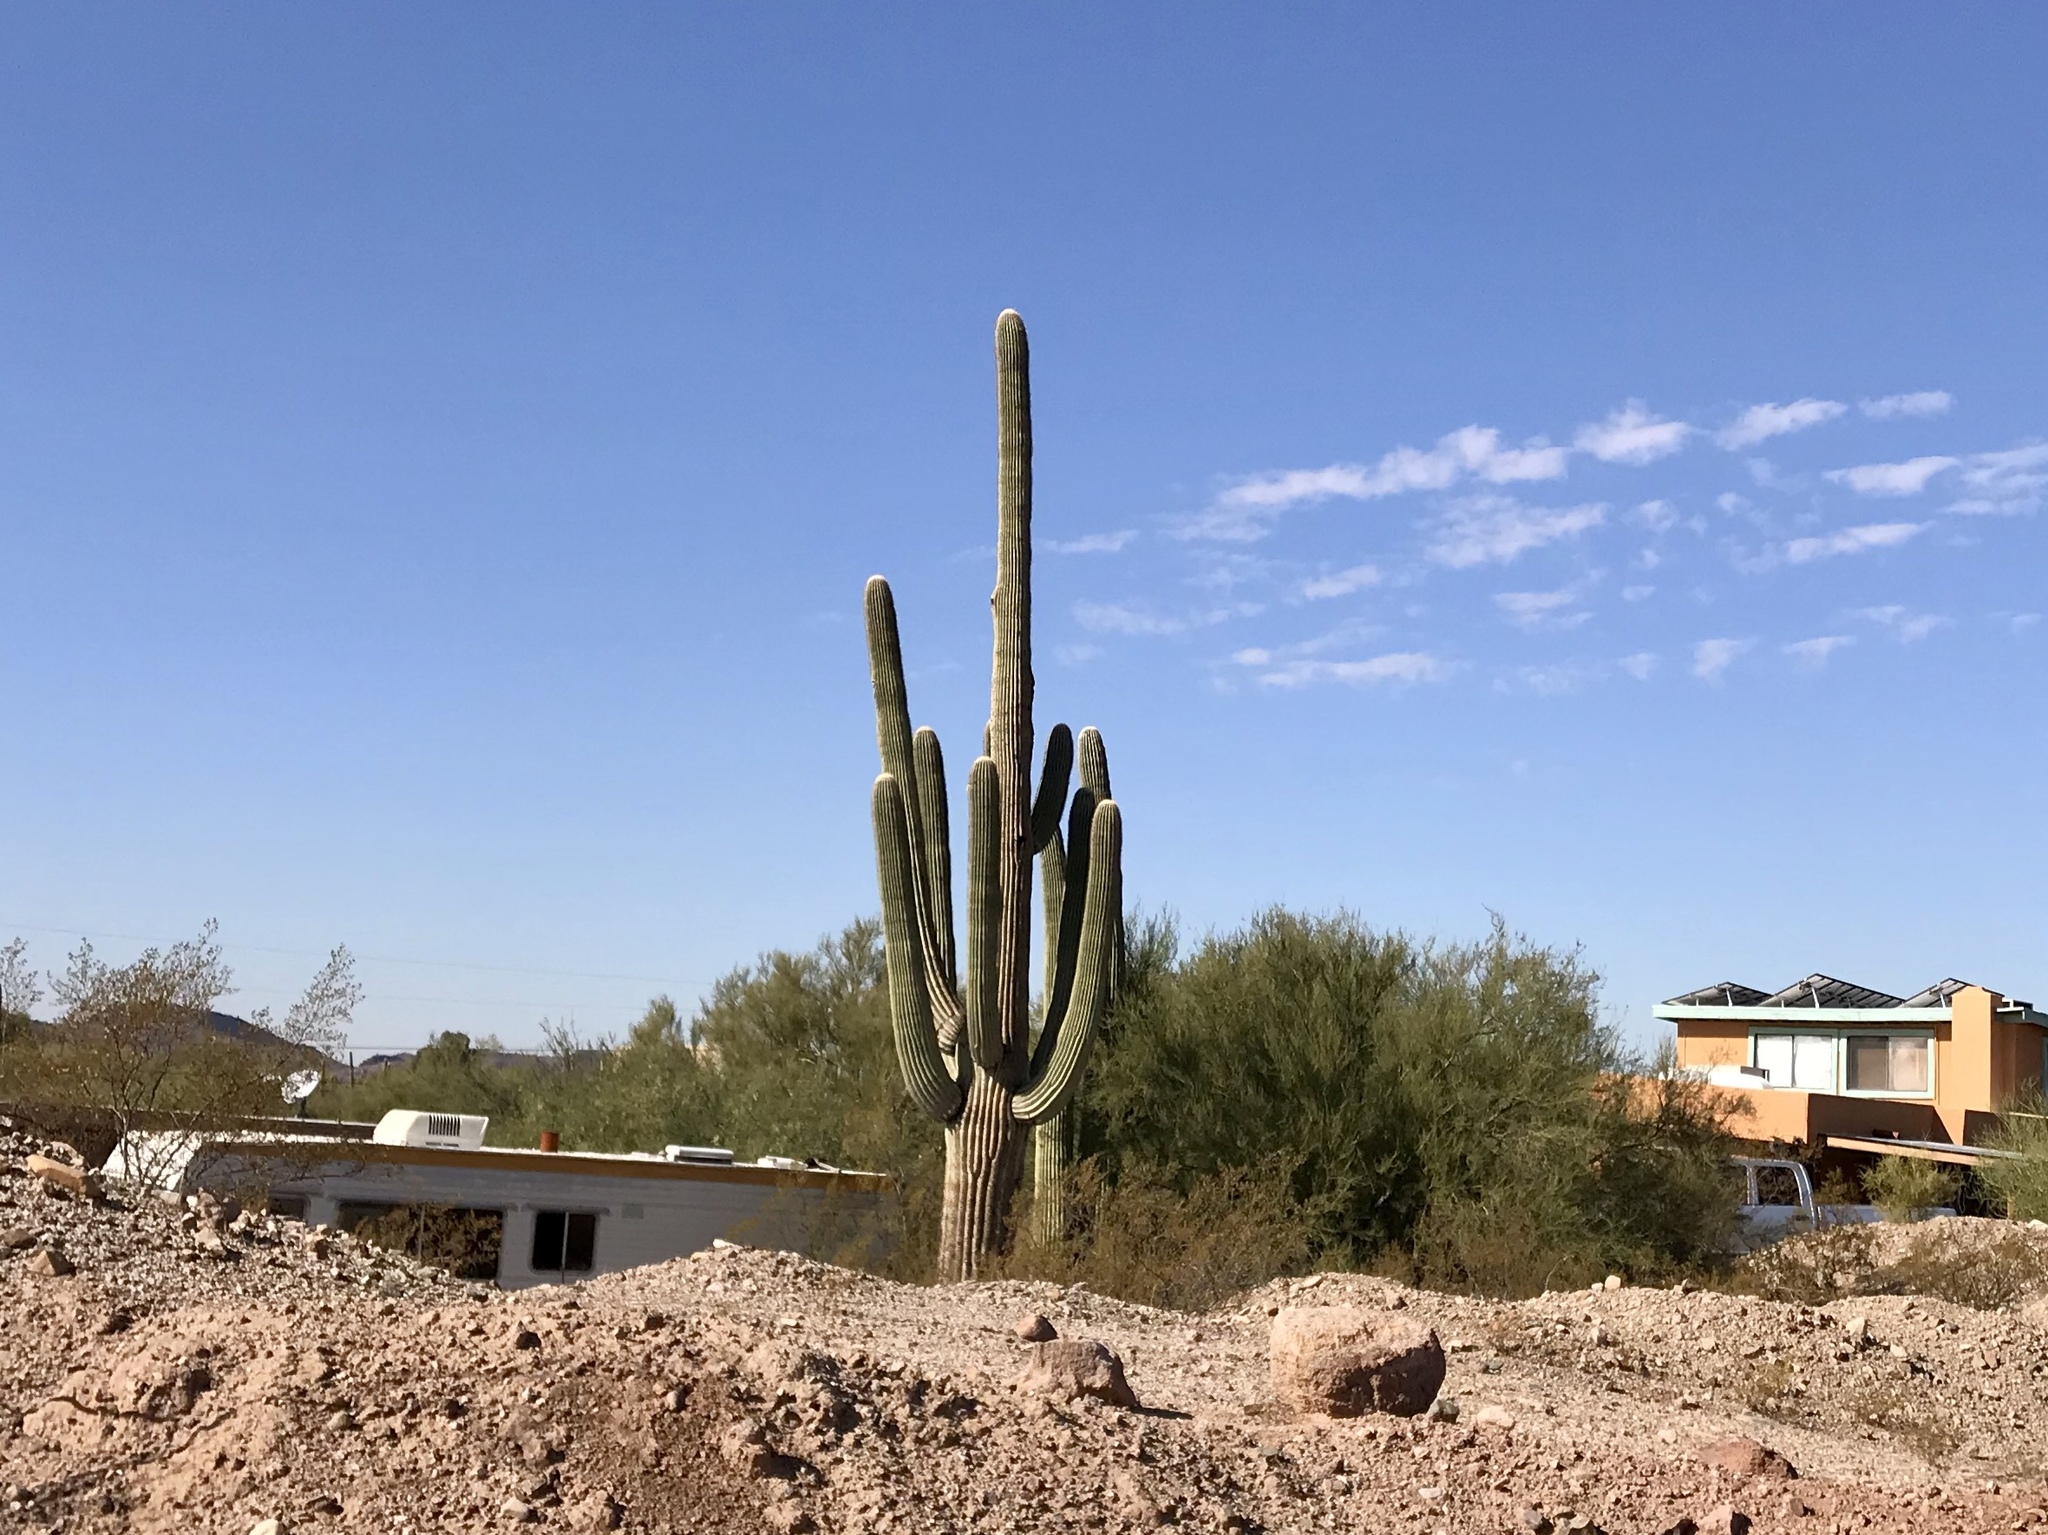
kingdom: Plantae
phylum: Tracheophyta
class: Magnoliopsida
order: Caryophyllales
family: Cactaceae
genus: Carnegiea
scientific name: Carnegiea gigantea
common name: Saguaro
